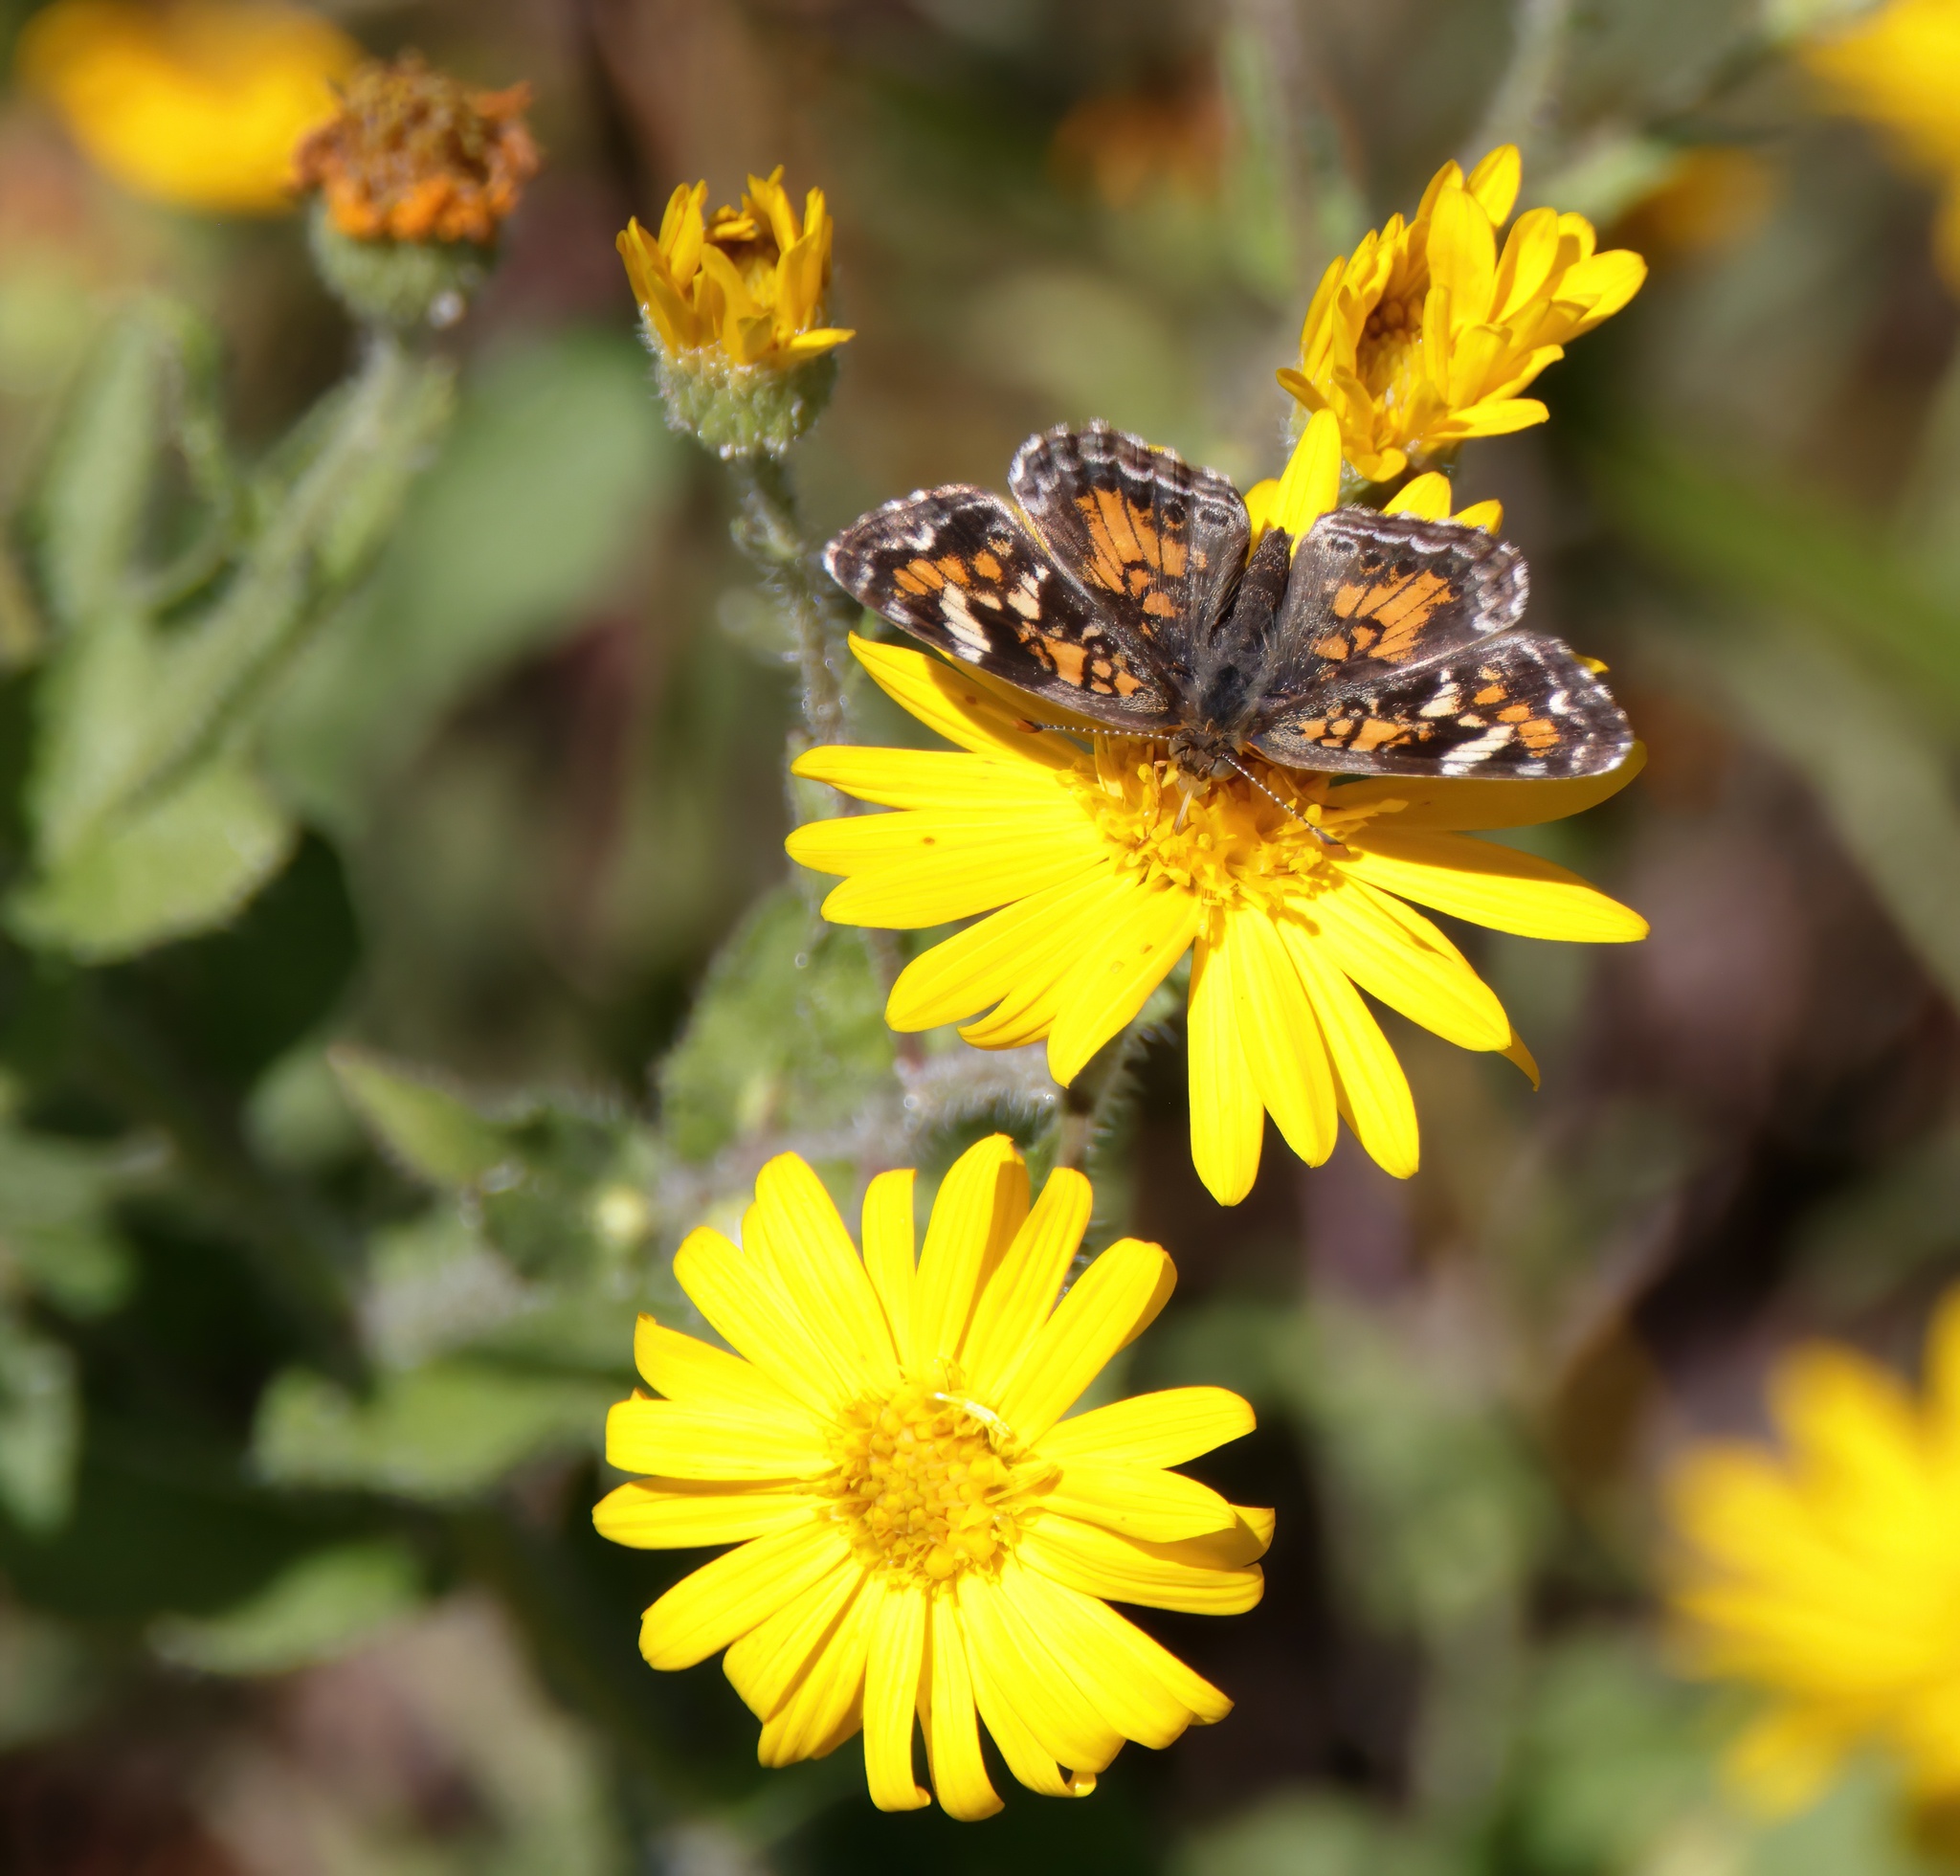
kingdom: Animalia
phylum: Arthropoda
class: Insecta
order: Lepidoptera
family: Nymphalidae
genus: Phyciodes
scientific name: Phyciodes phaon
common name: Phaon crescent
